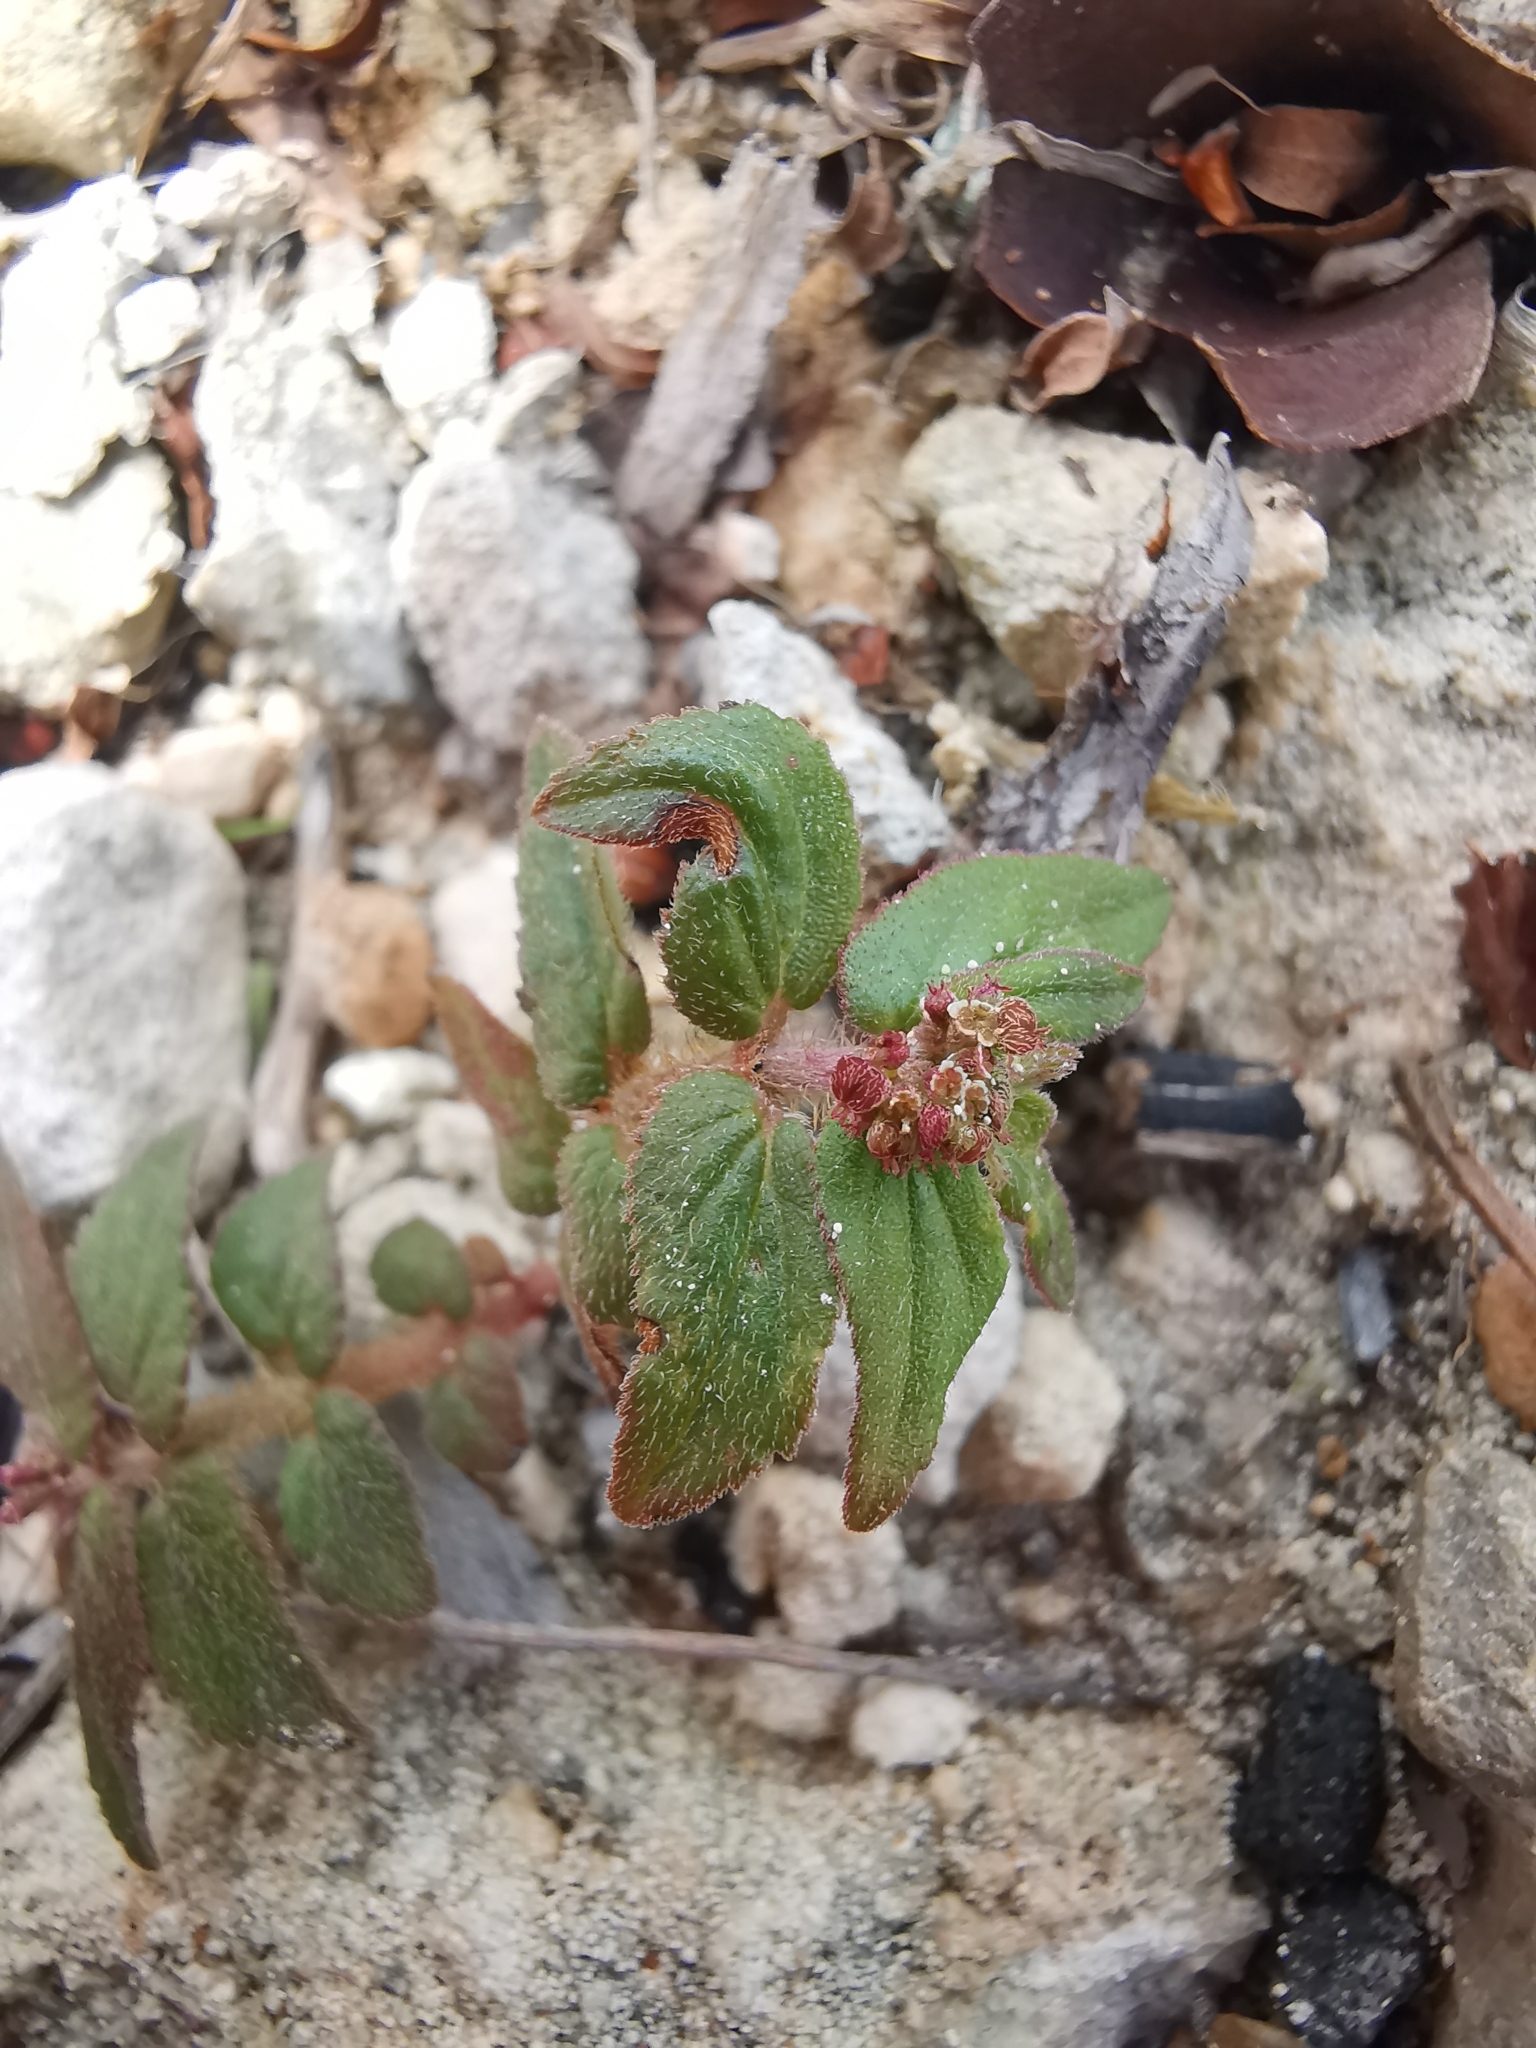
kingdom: Plantae
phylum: Tracheophyta
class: Magnoliopsida
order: Malpighiales
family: Euphorbiaceae
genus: Euphorbia
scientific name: Euphorbia hirta
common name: Pillpod sandmat
